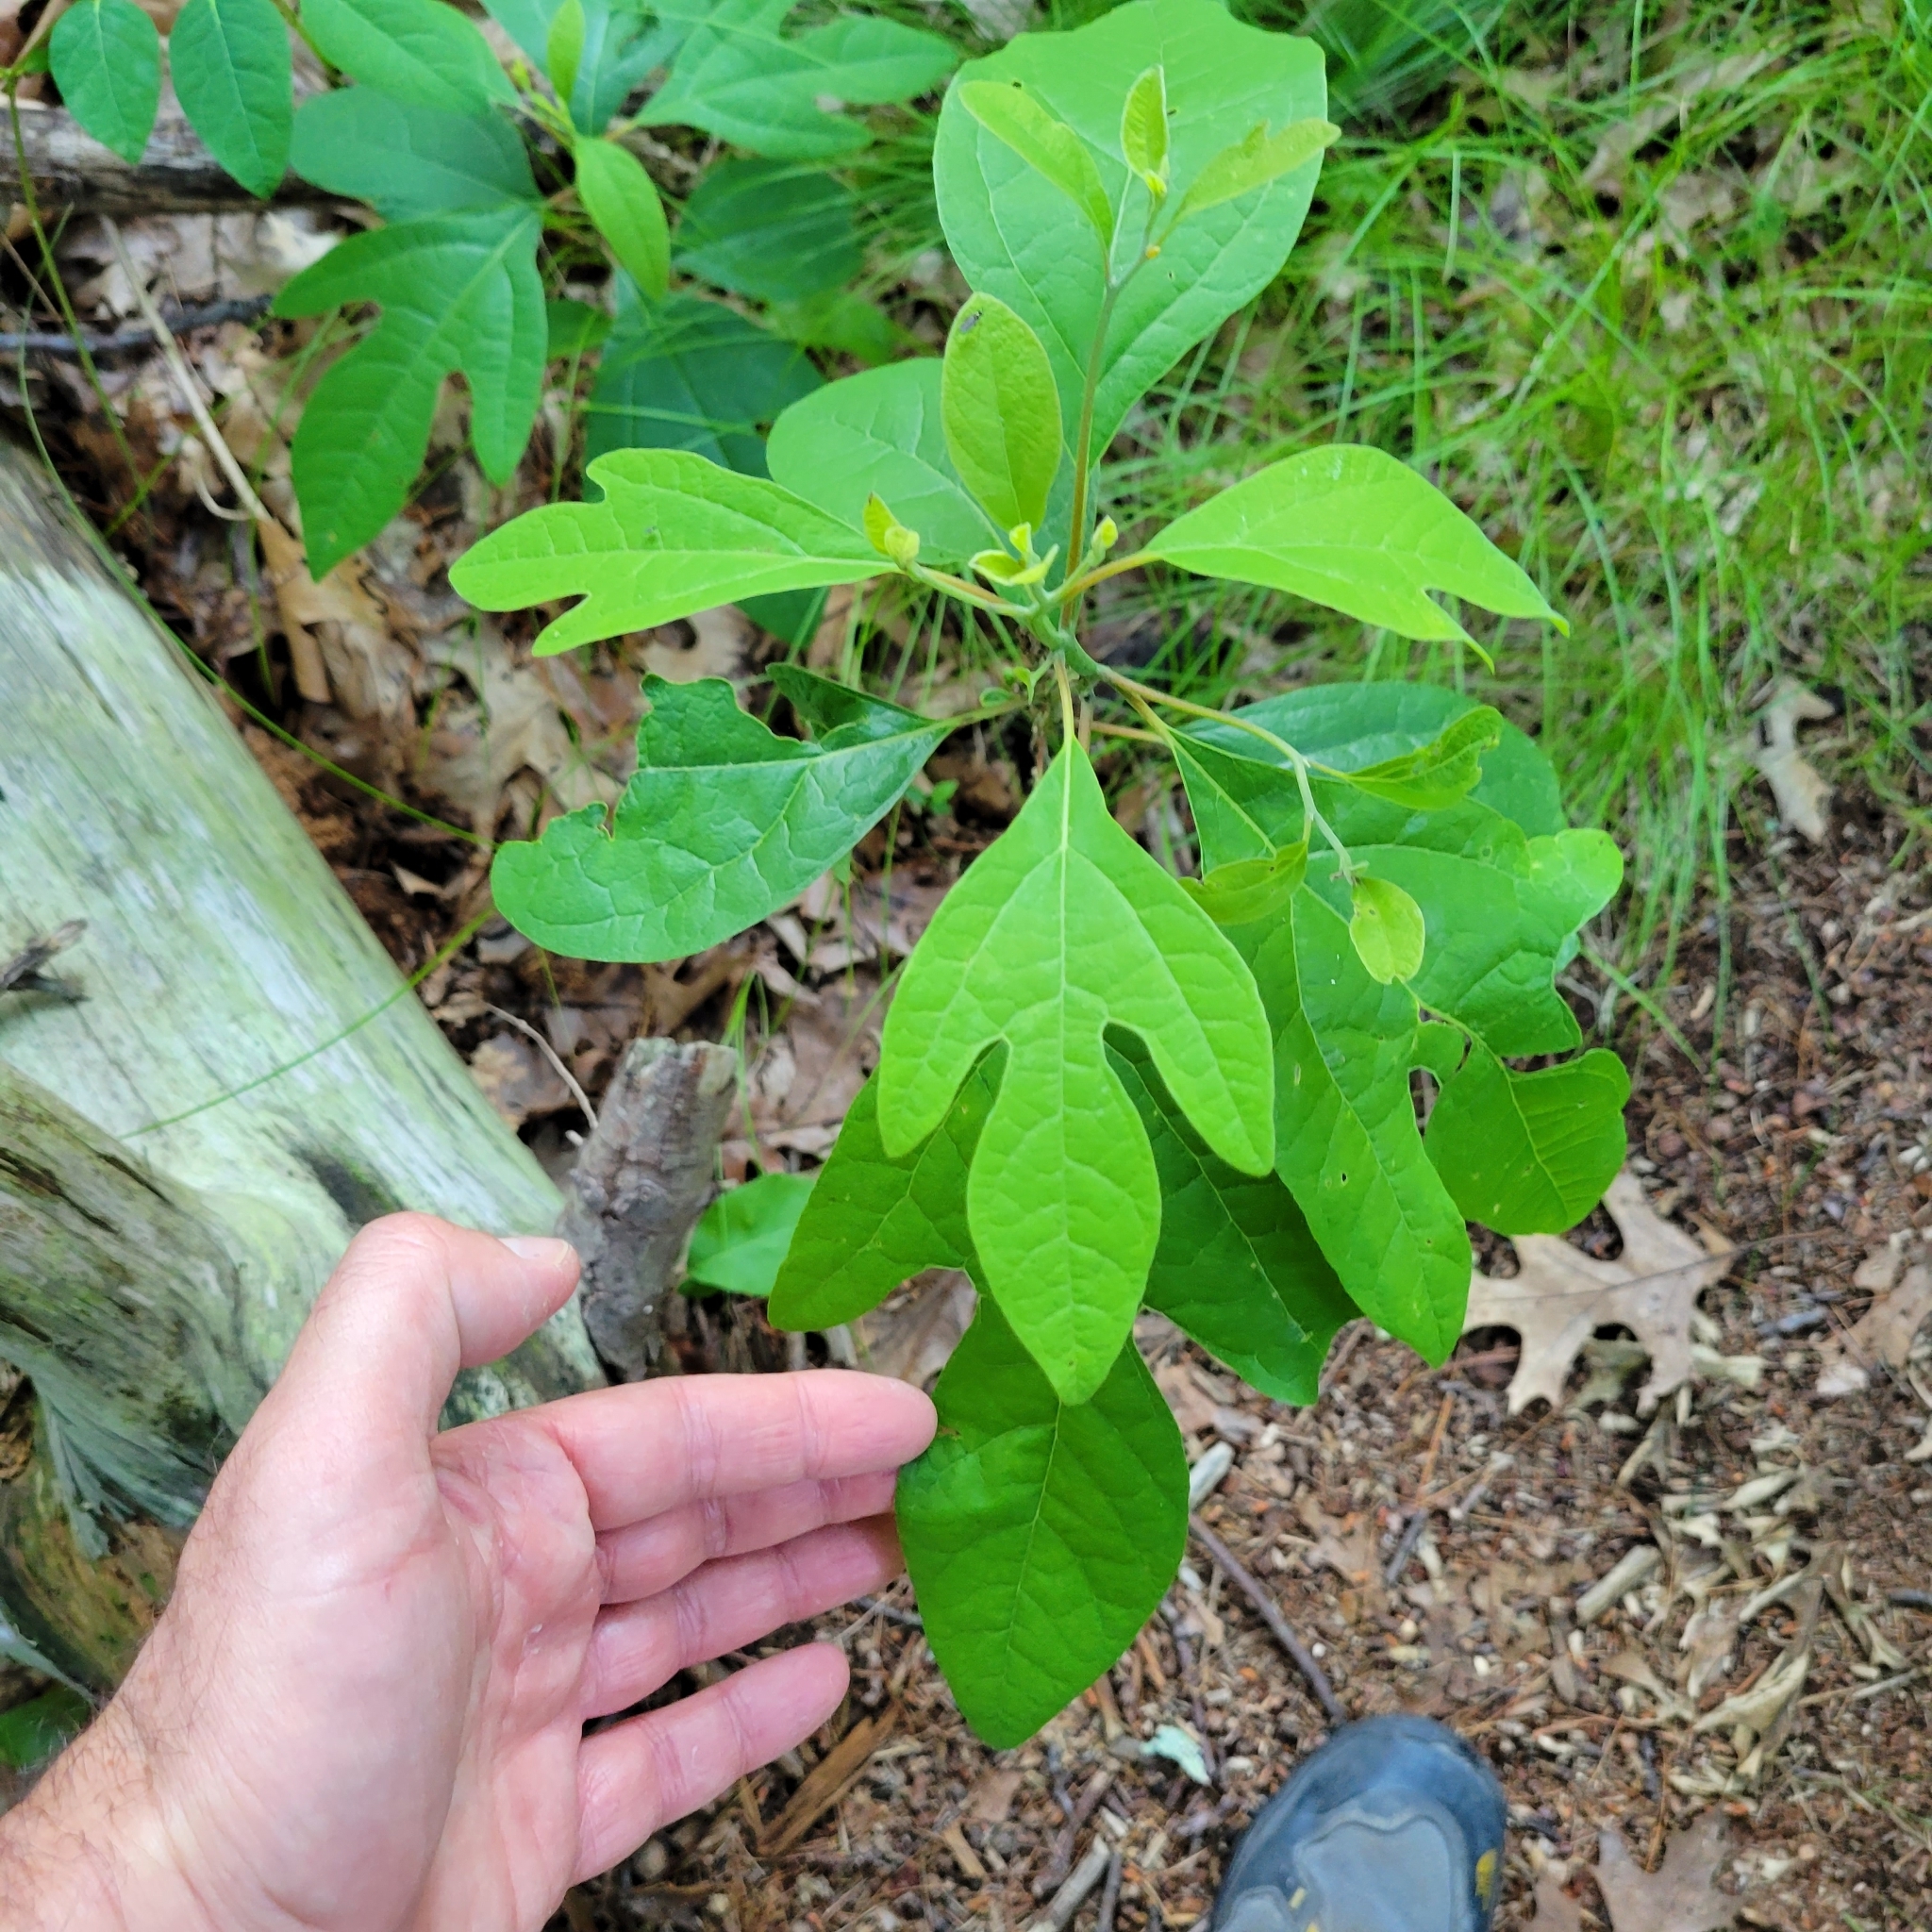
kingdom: Plantae
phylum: Tracheophyta
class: Magnoliopsida
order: Laurales
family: Lauraceae
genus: Sassafras
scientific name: Sassafras albidum
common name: Sassafras
